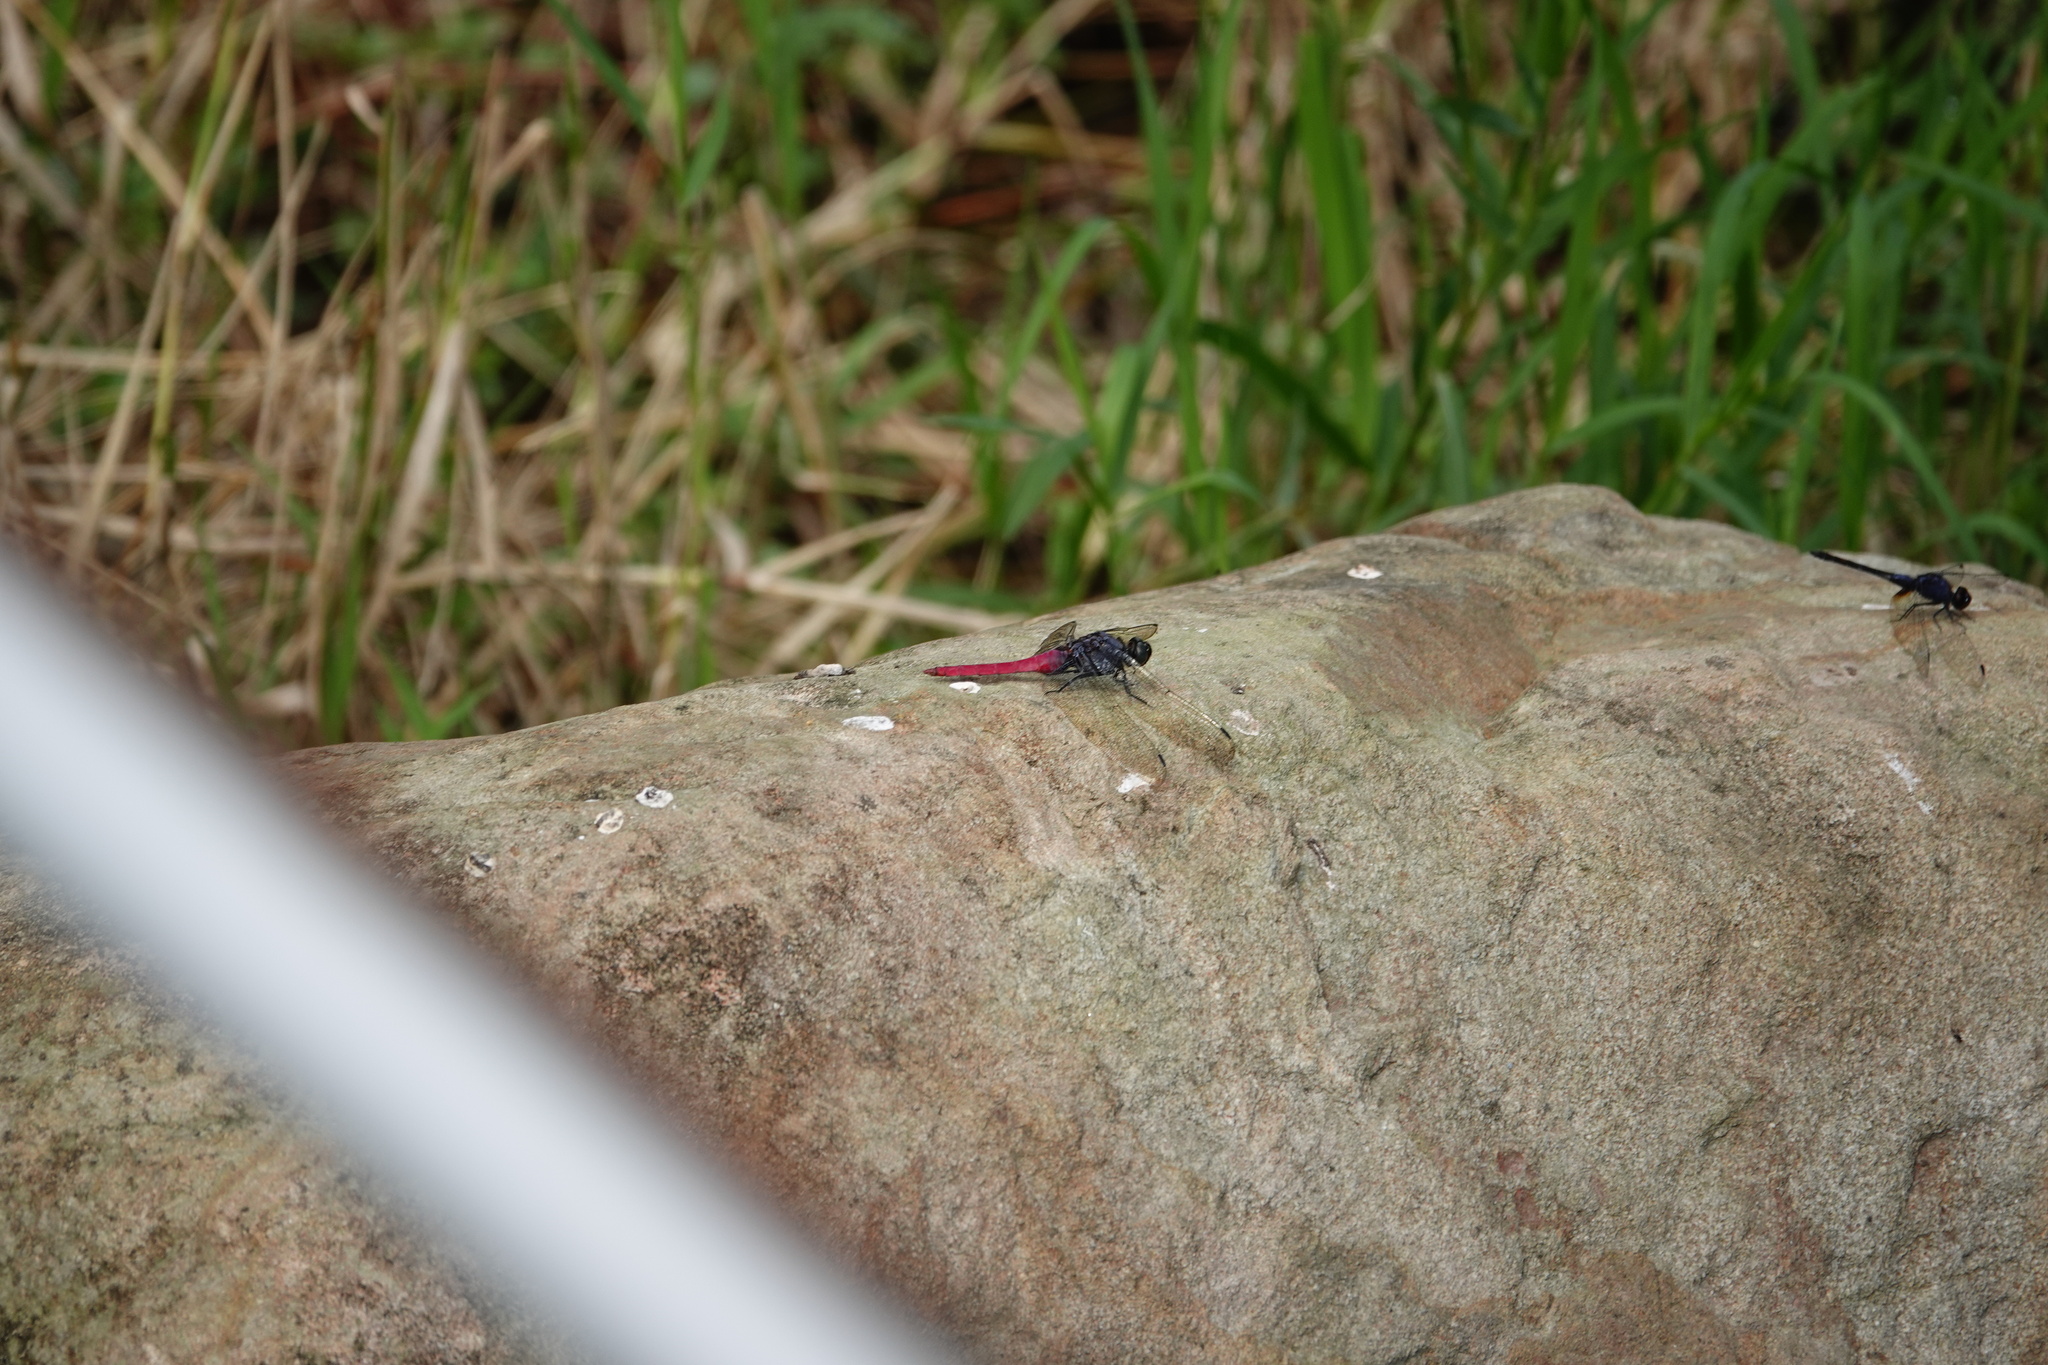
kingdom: Animalia
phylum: Arthropoda
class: Insecta
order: Odonata
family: Libellulidae
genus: Orthetrum
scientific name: Orthetrum pruinosum
